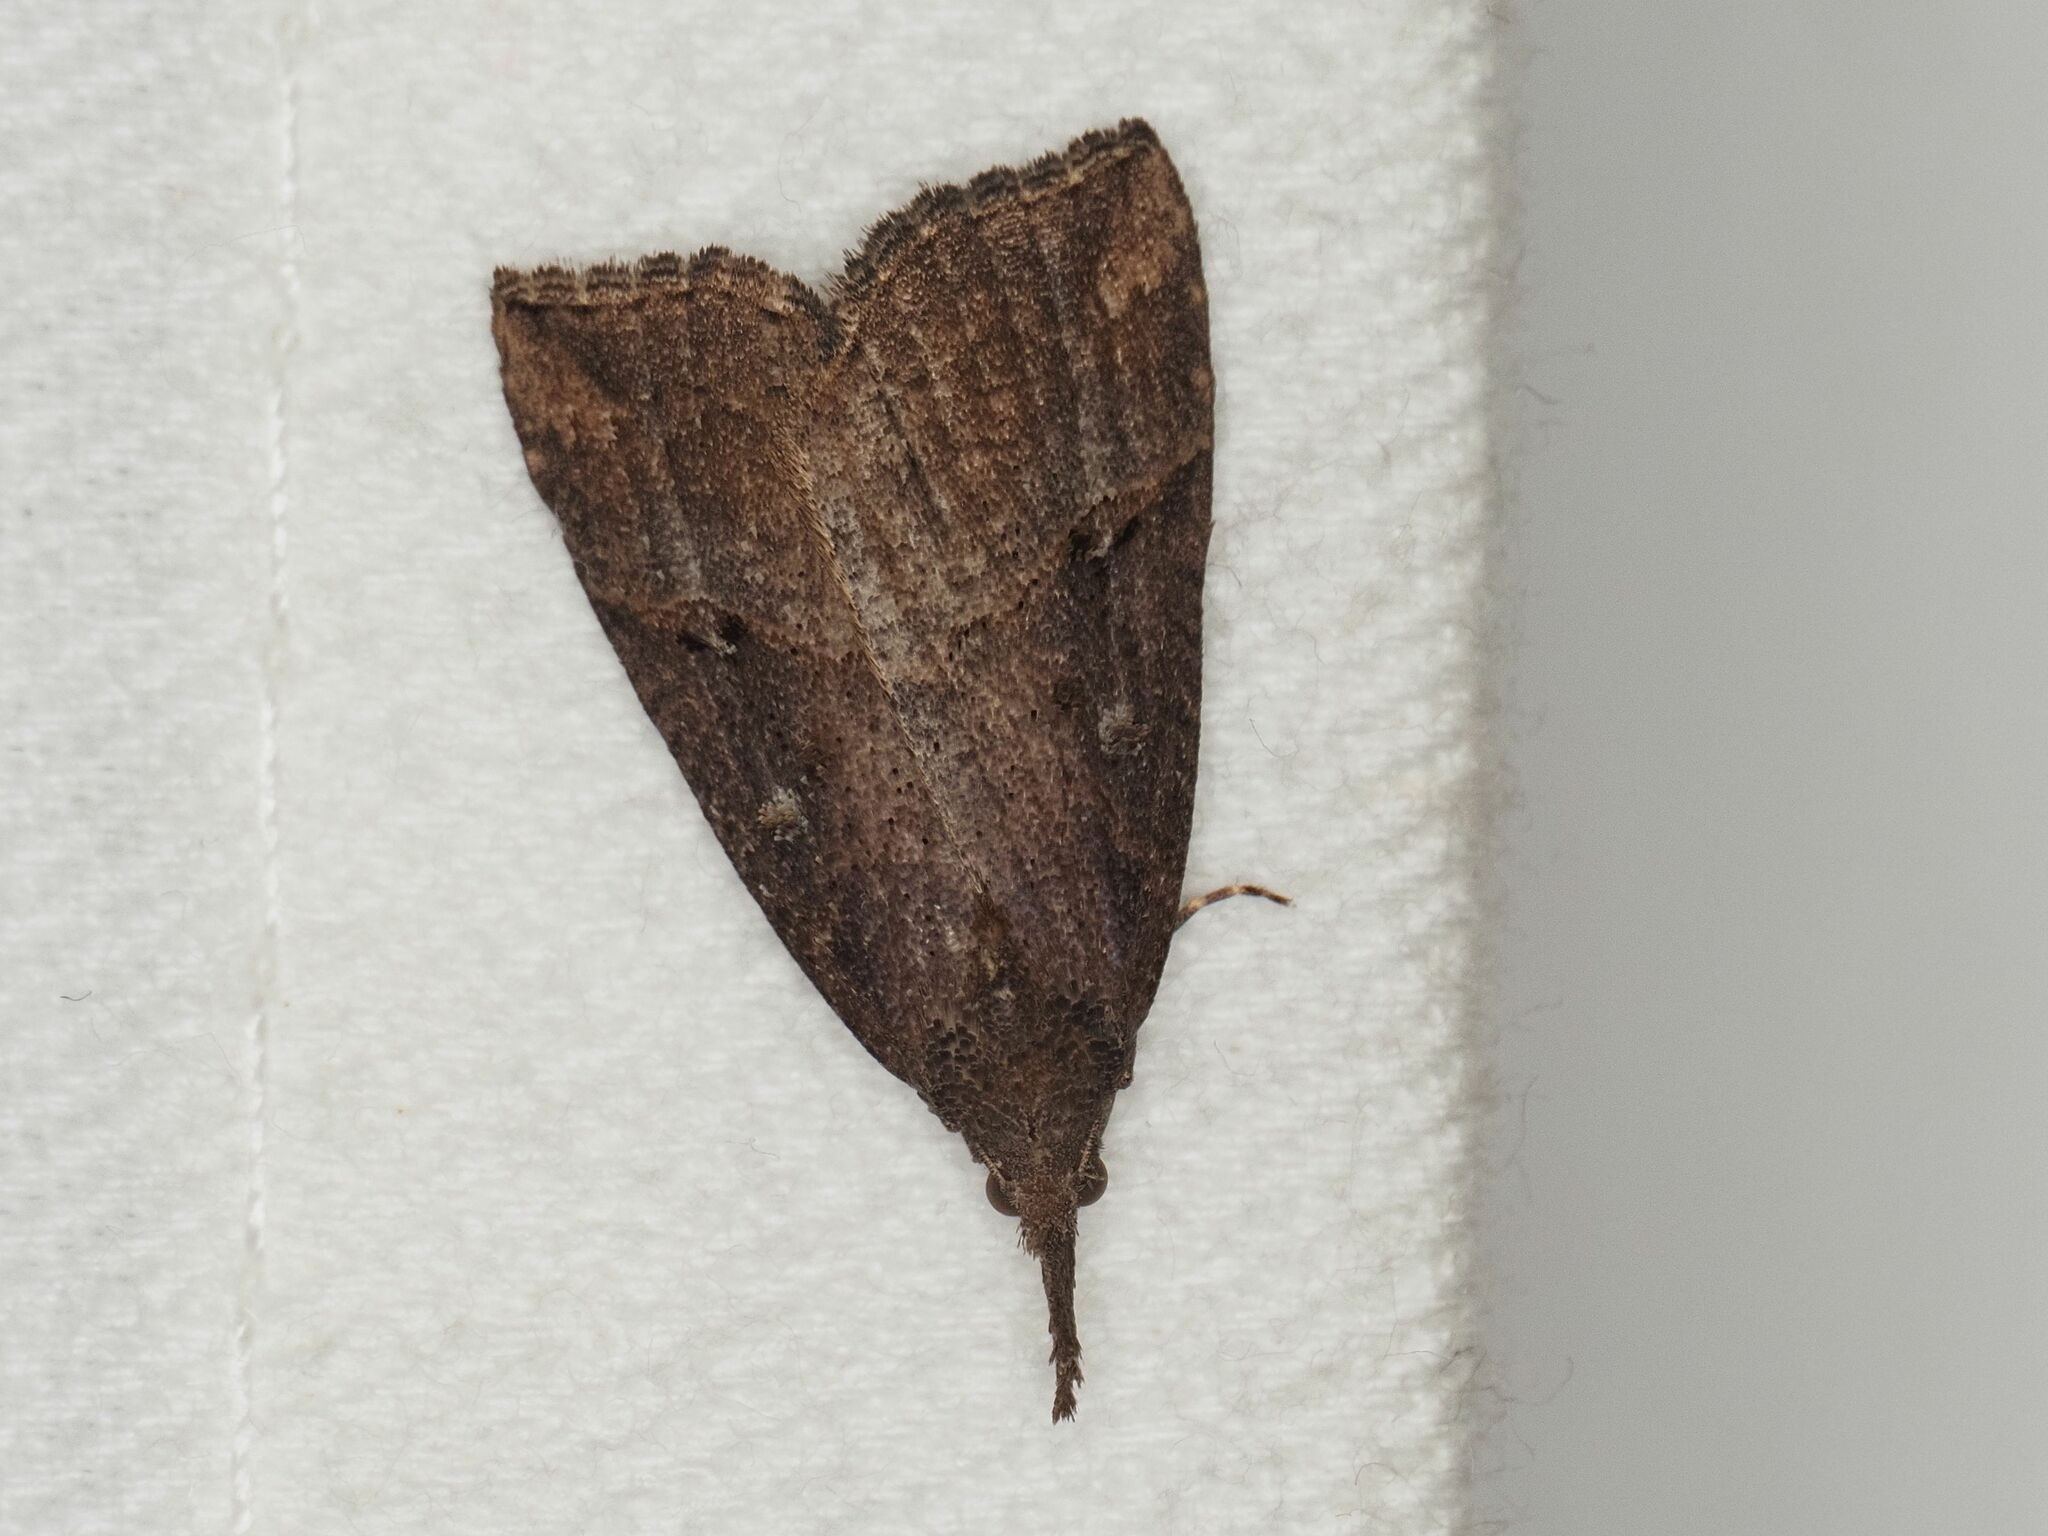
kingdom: Animalia
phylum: Arthropoda
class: Insecta
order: Lepidoptera
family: Erebidae
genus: Hypena
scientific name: Hypena rostralis
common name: Buttoned snout
